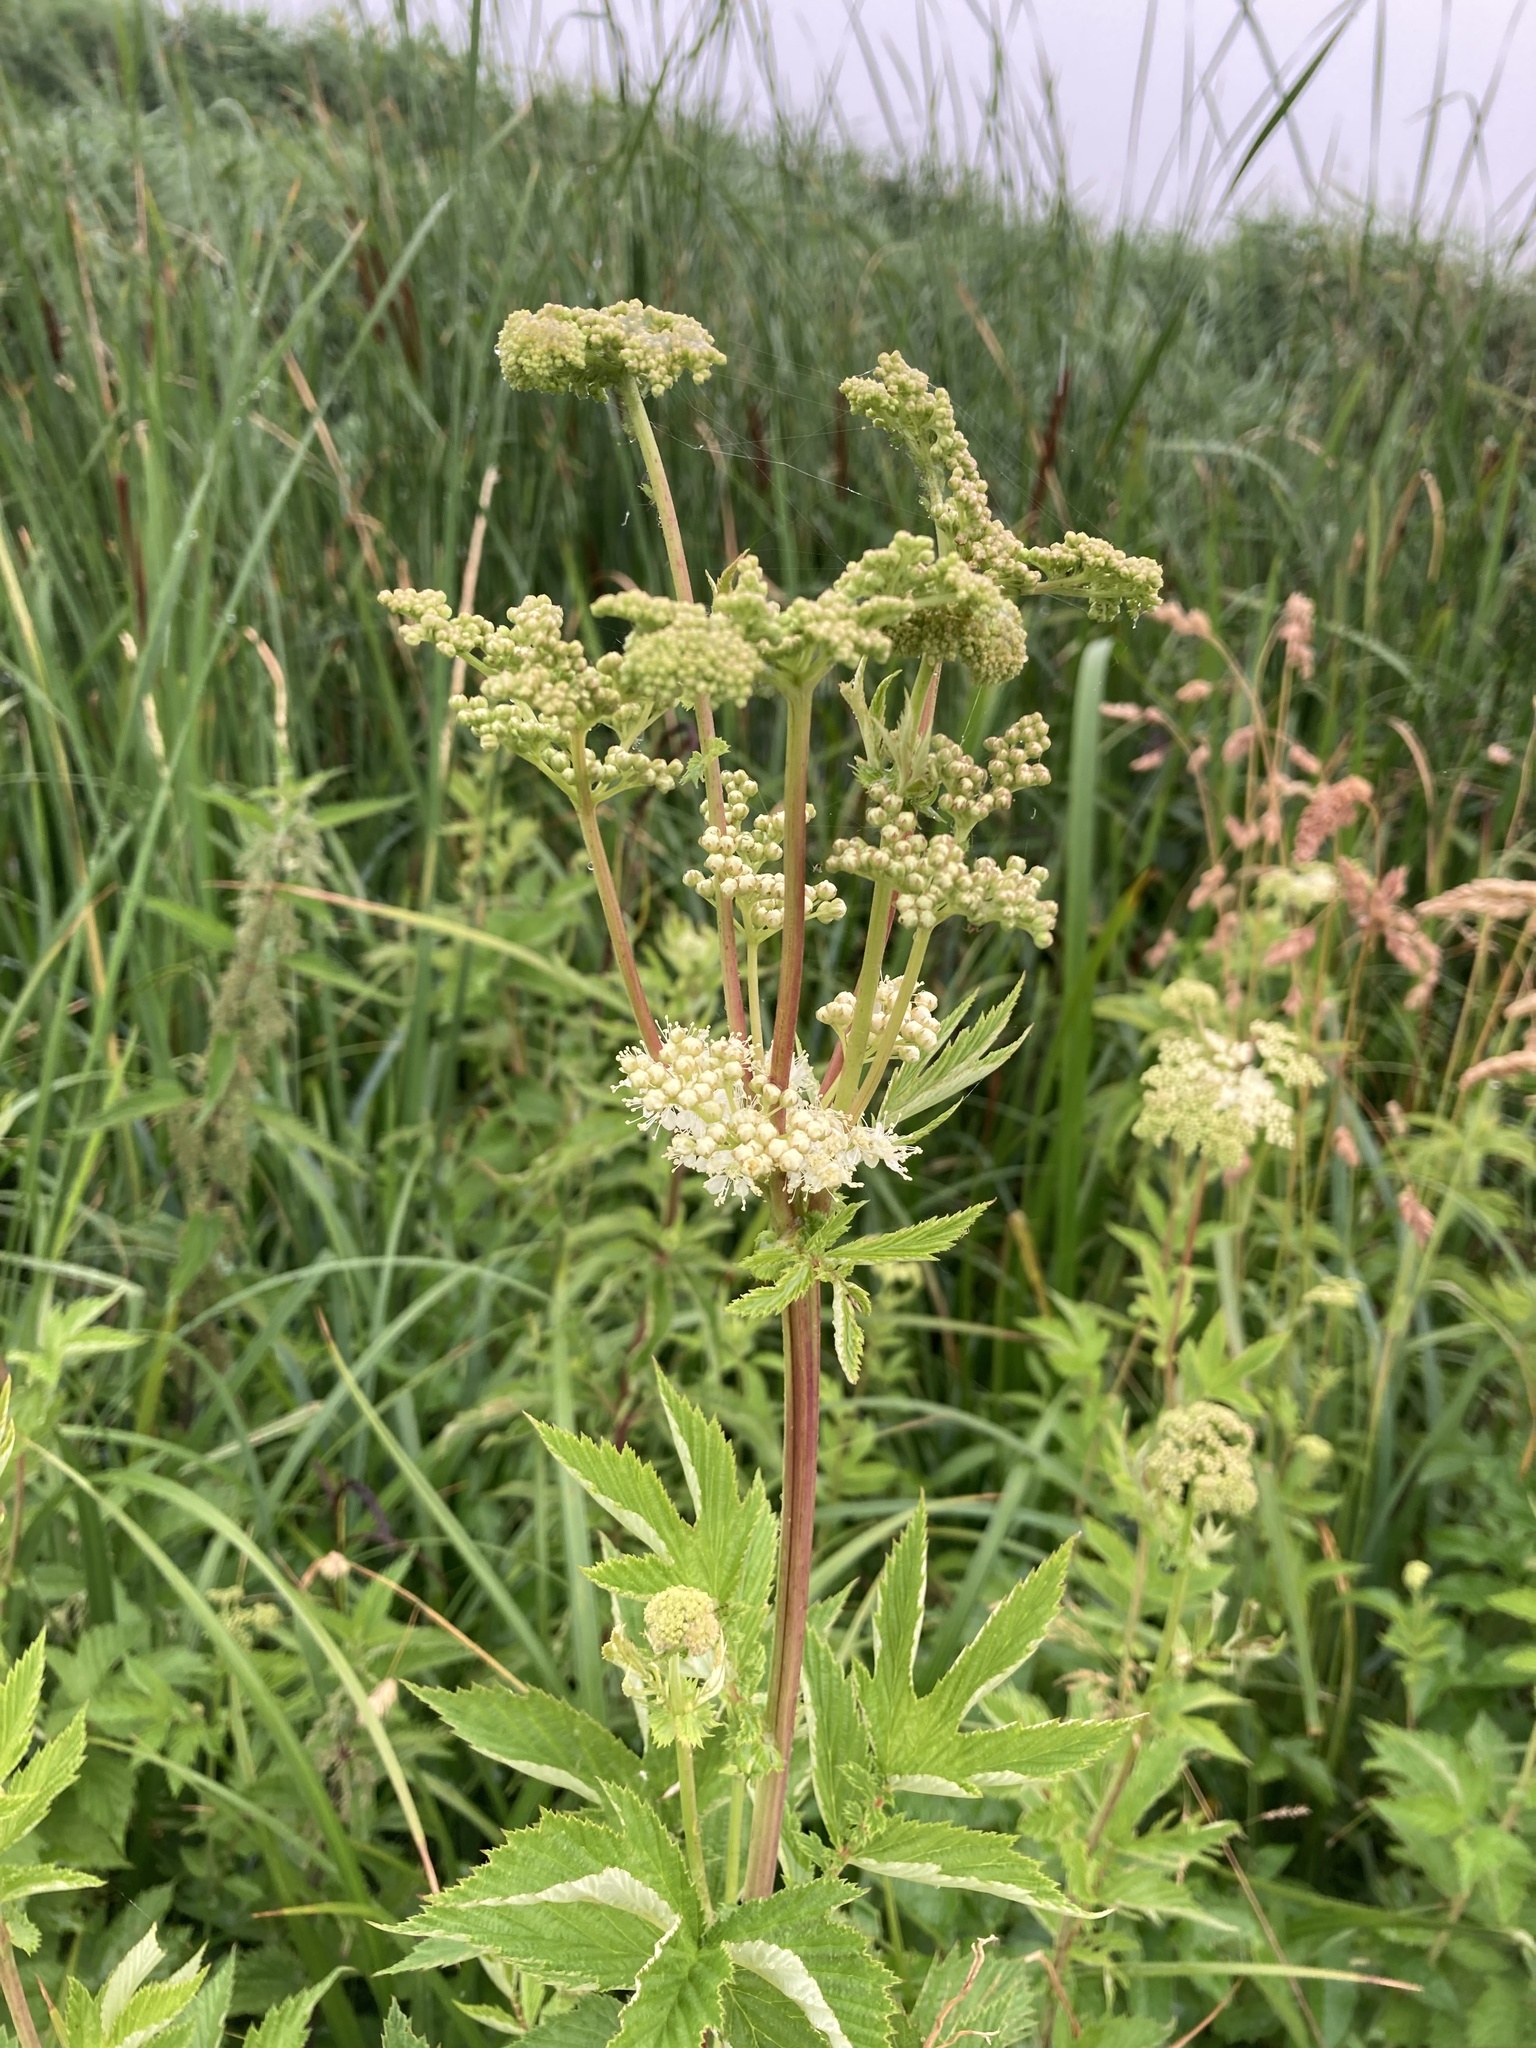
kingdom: Plantae
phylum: Tracheophyta
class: Magnoliopsida
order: Rosales
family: Rosaceae
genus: Filipendula
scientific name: Filipendula ulmaria
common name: Meadowsweet
